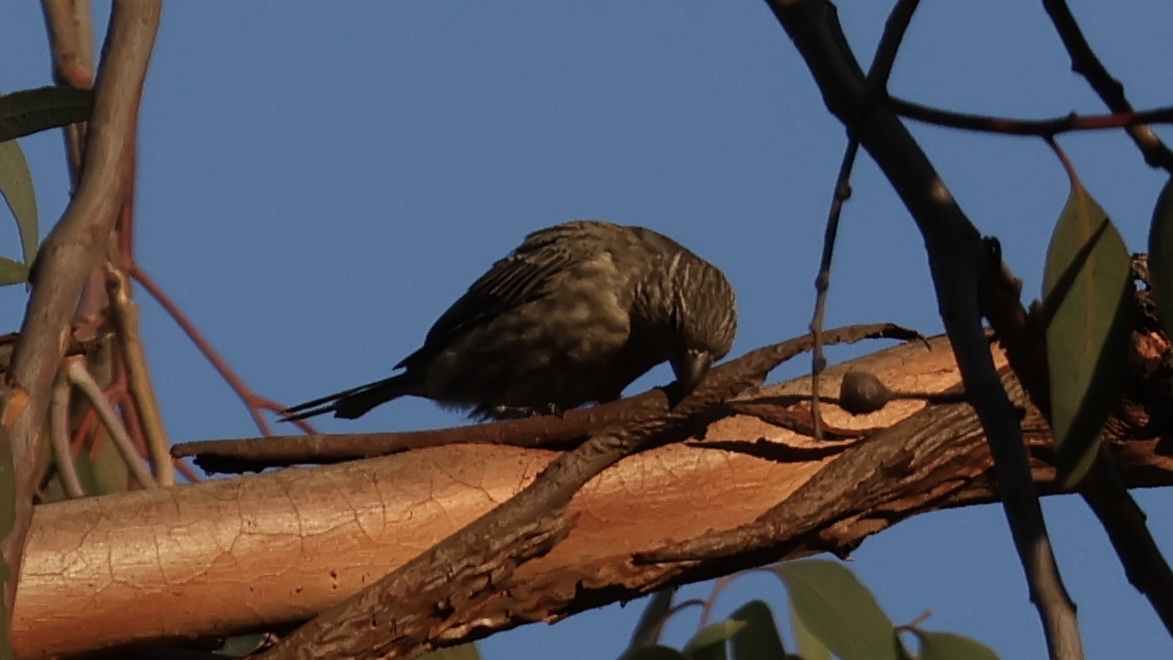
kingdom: Animalia
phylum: Chordata
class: Aves
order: Passeriformes
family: Fringillidae
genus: Haemorhous
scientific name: Haemorhous mexicanus
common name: House finch
